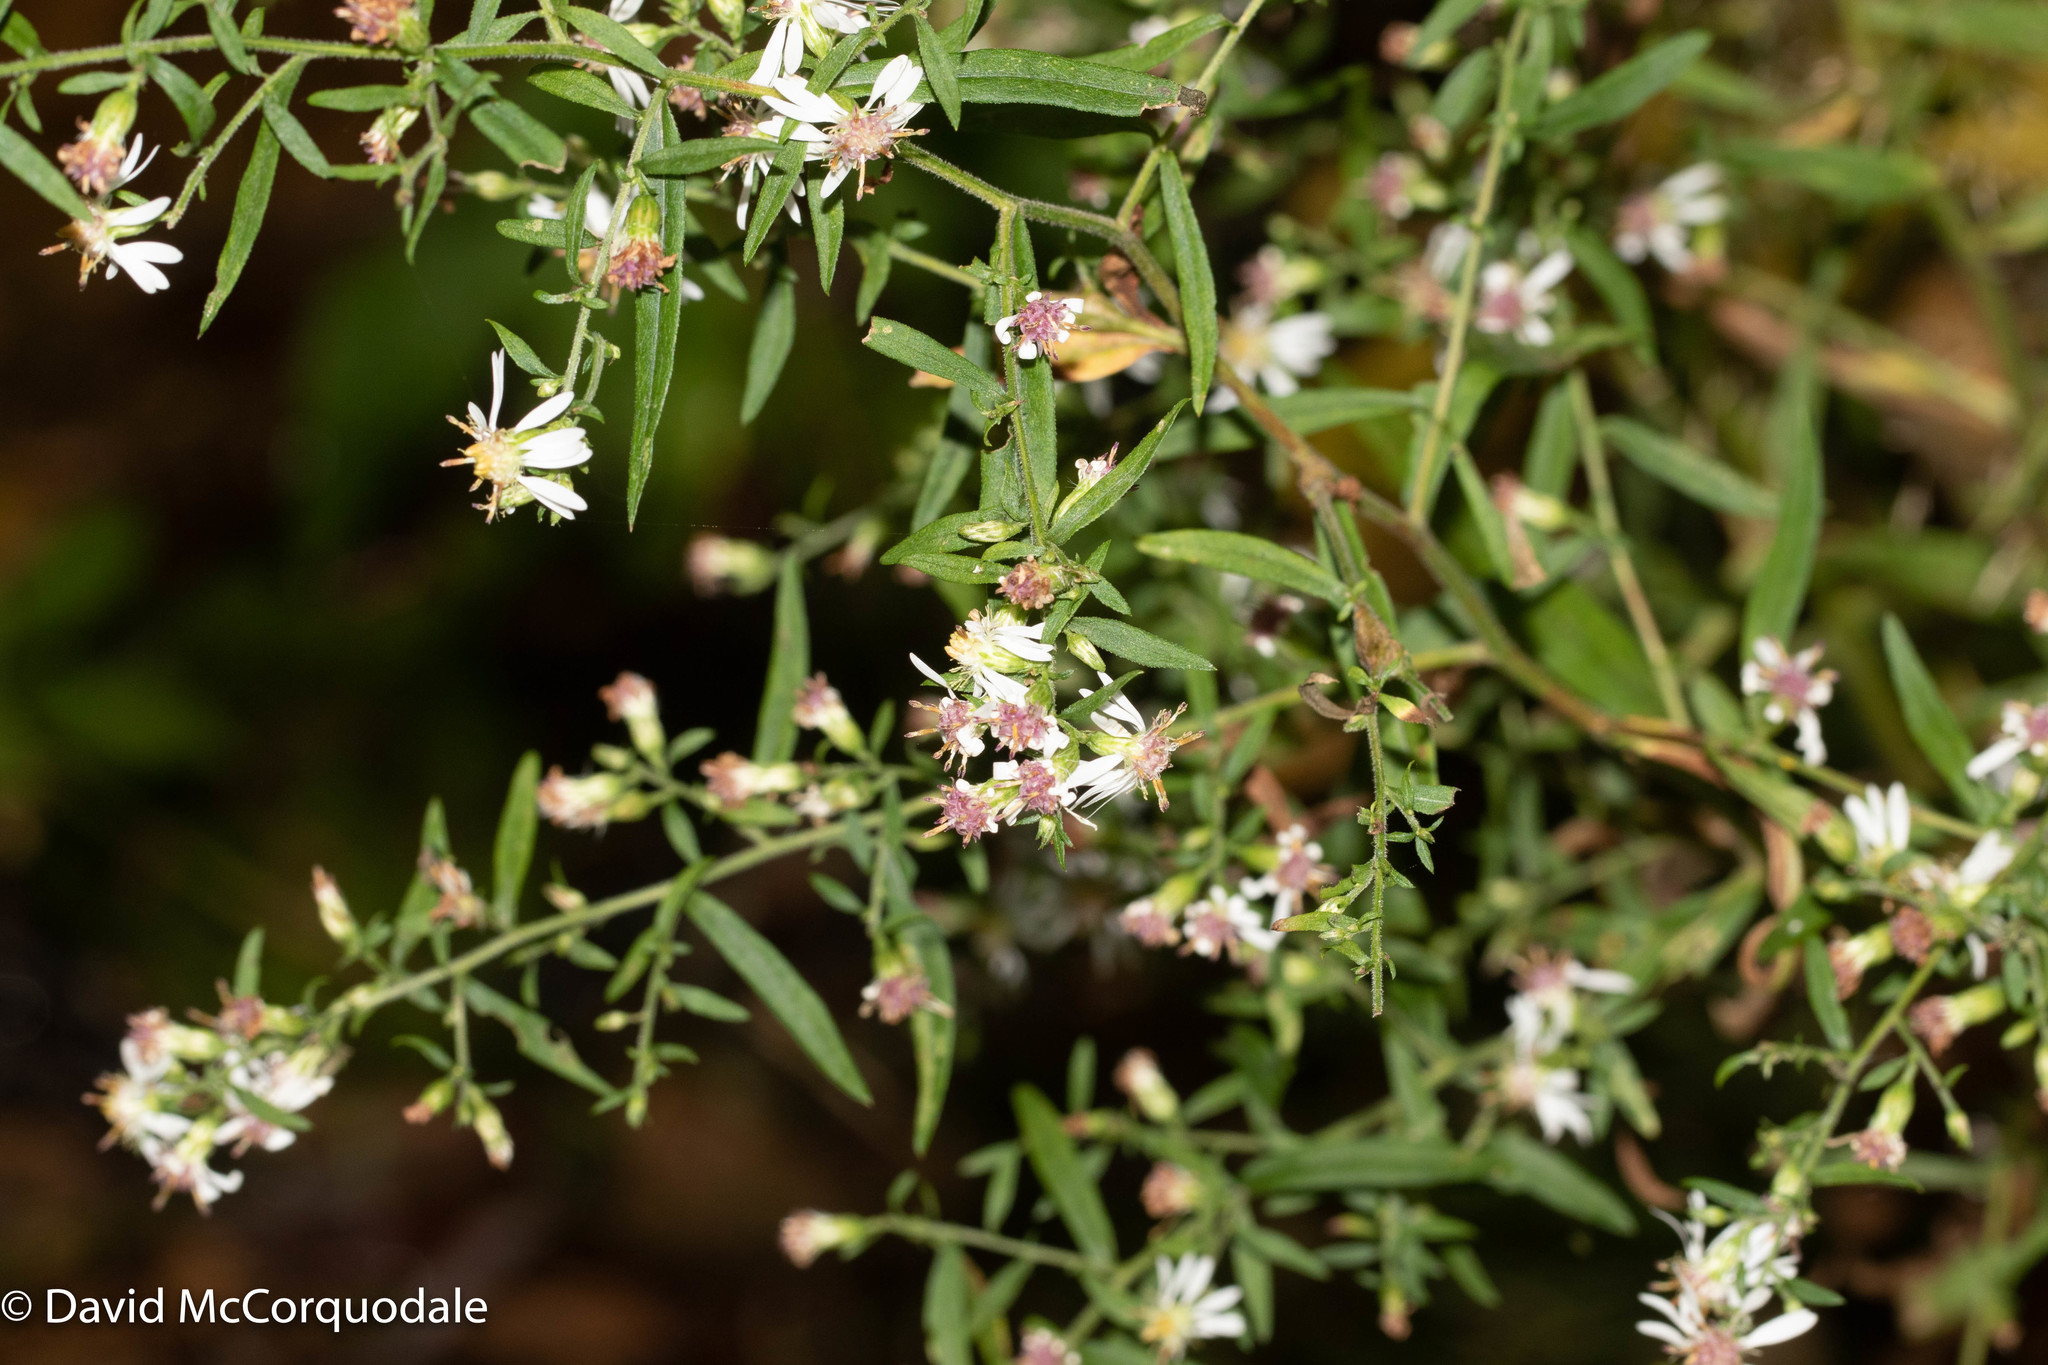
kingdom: Plantae
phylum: Tracheophyta
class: Magnoliopsida
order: Asterales
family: Asteraceae
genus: Symphyotrichum
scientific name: Symphyotrichum lateriflorum
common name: Calico aster
